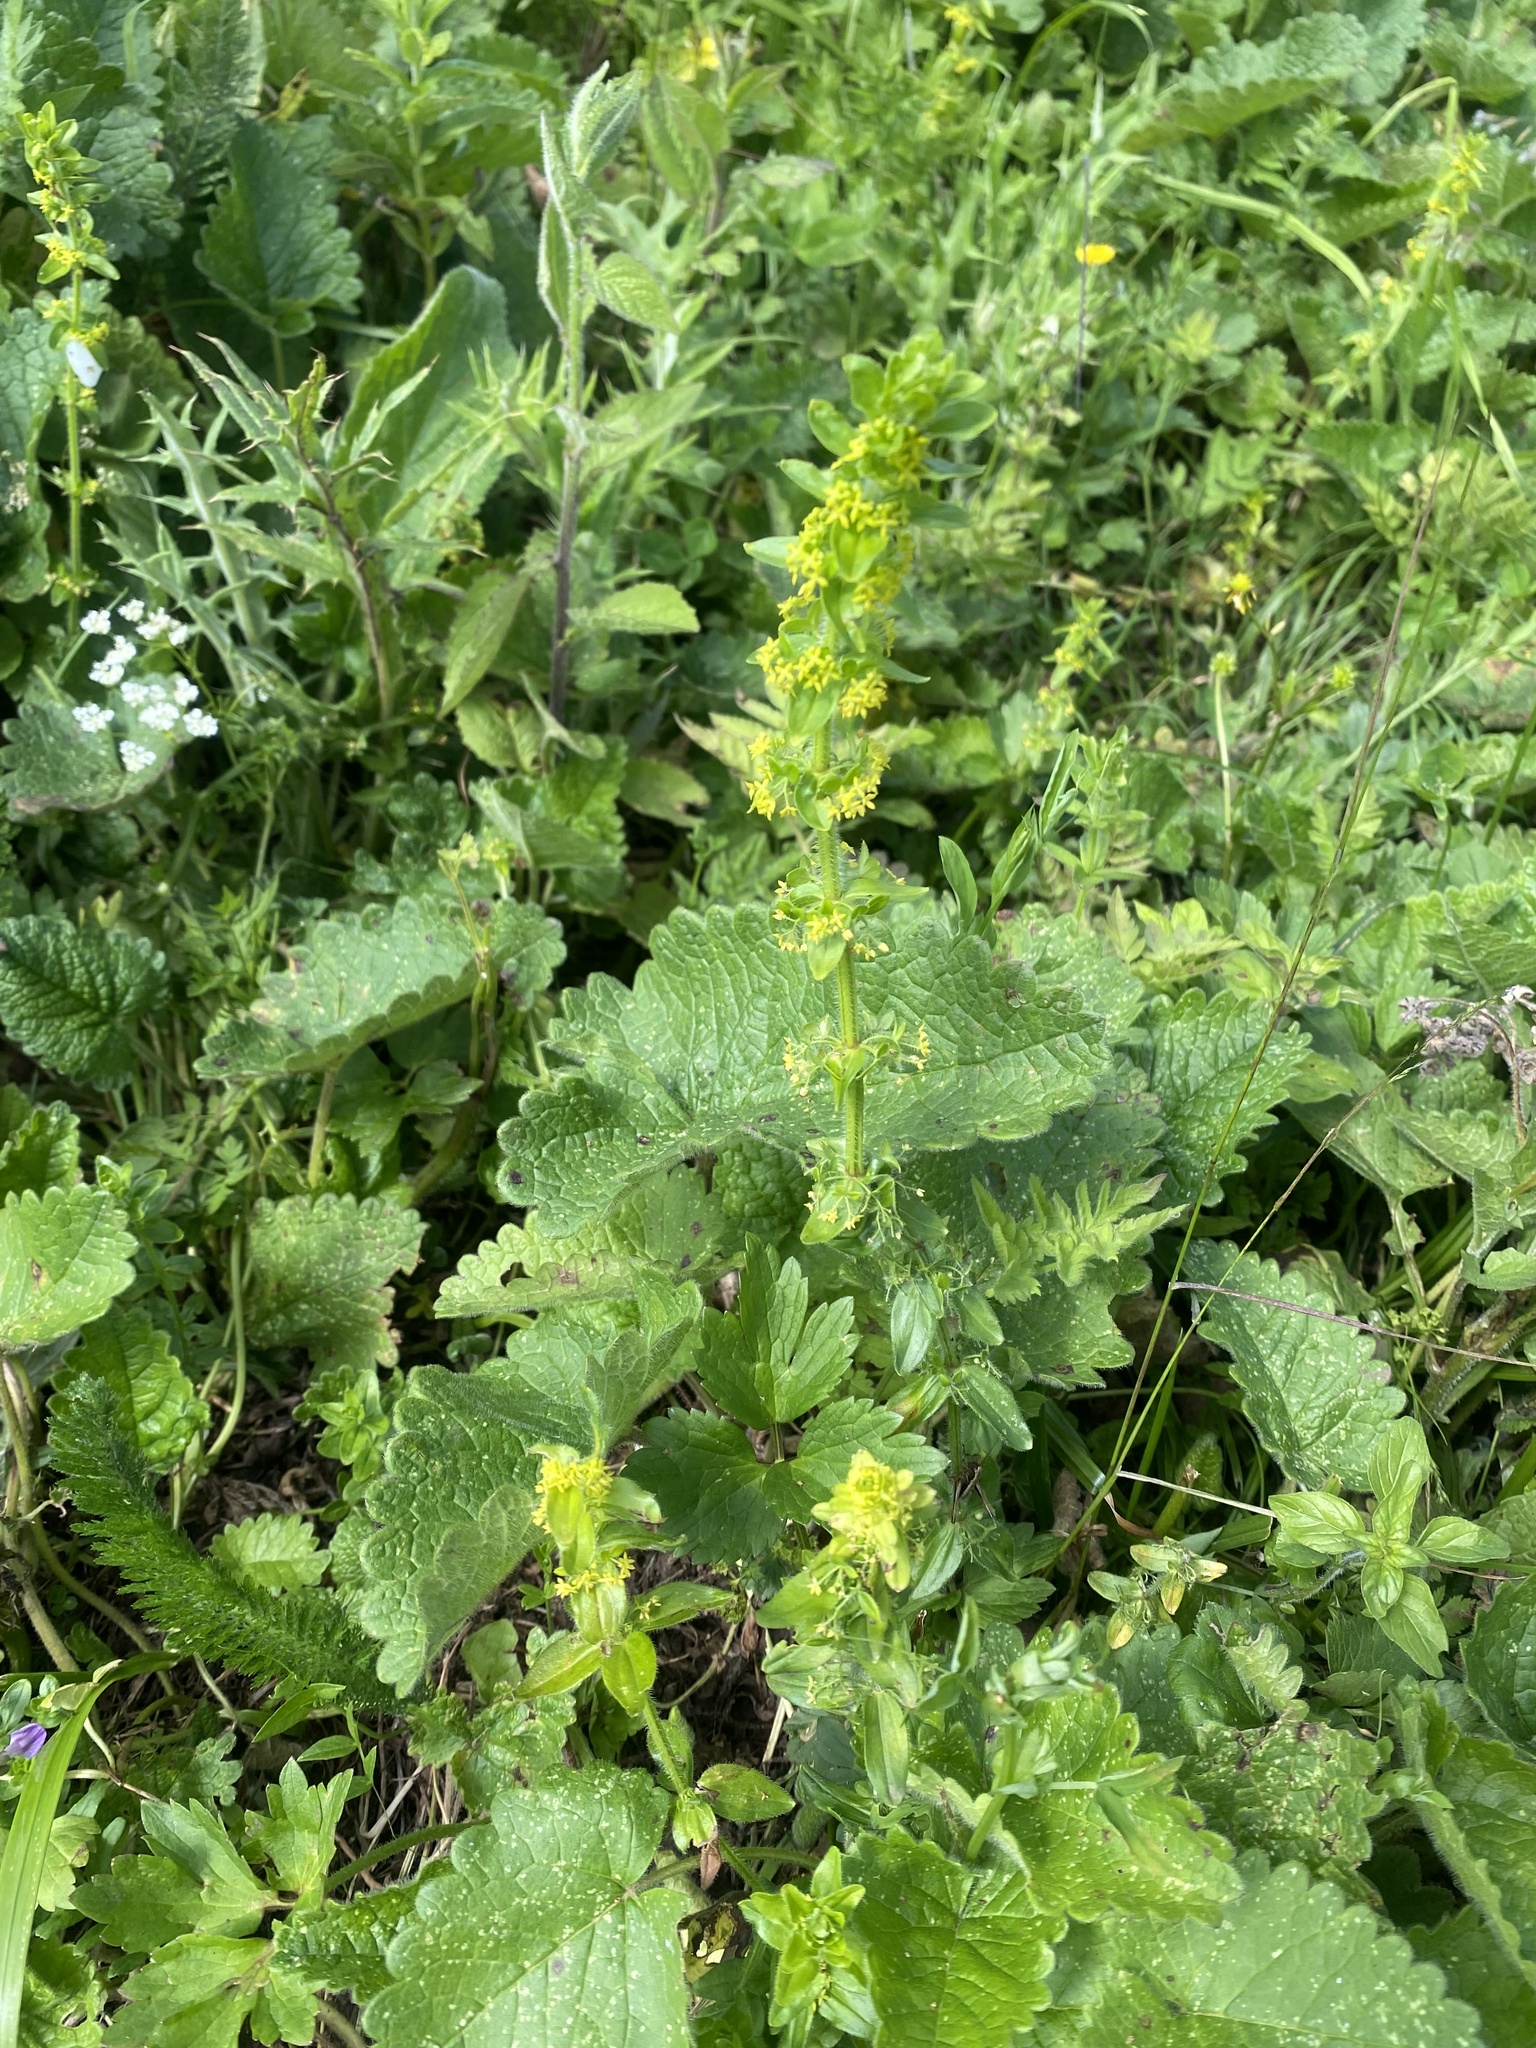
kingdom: Plantae
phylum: Tracheophyta
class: Magnoliopsida
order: Gentianales
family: Rubiaceae
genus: Cruciata
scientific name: Cruciata laevipes
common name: Crosswort
